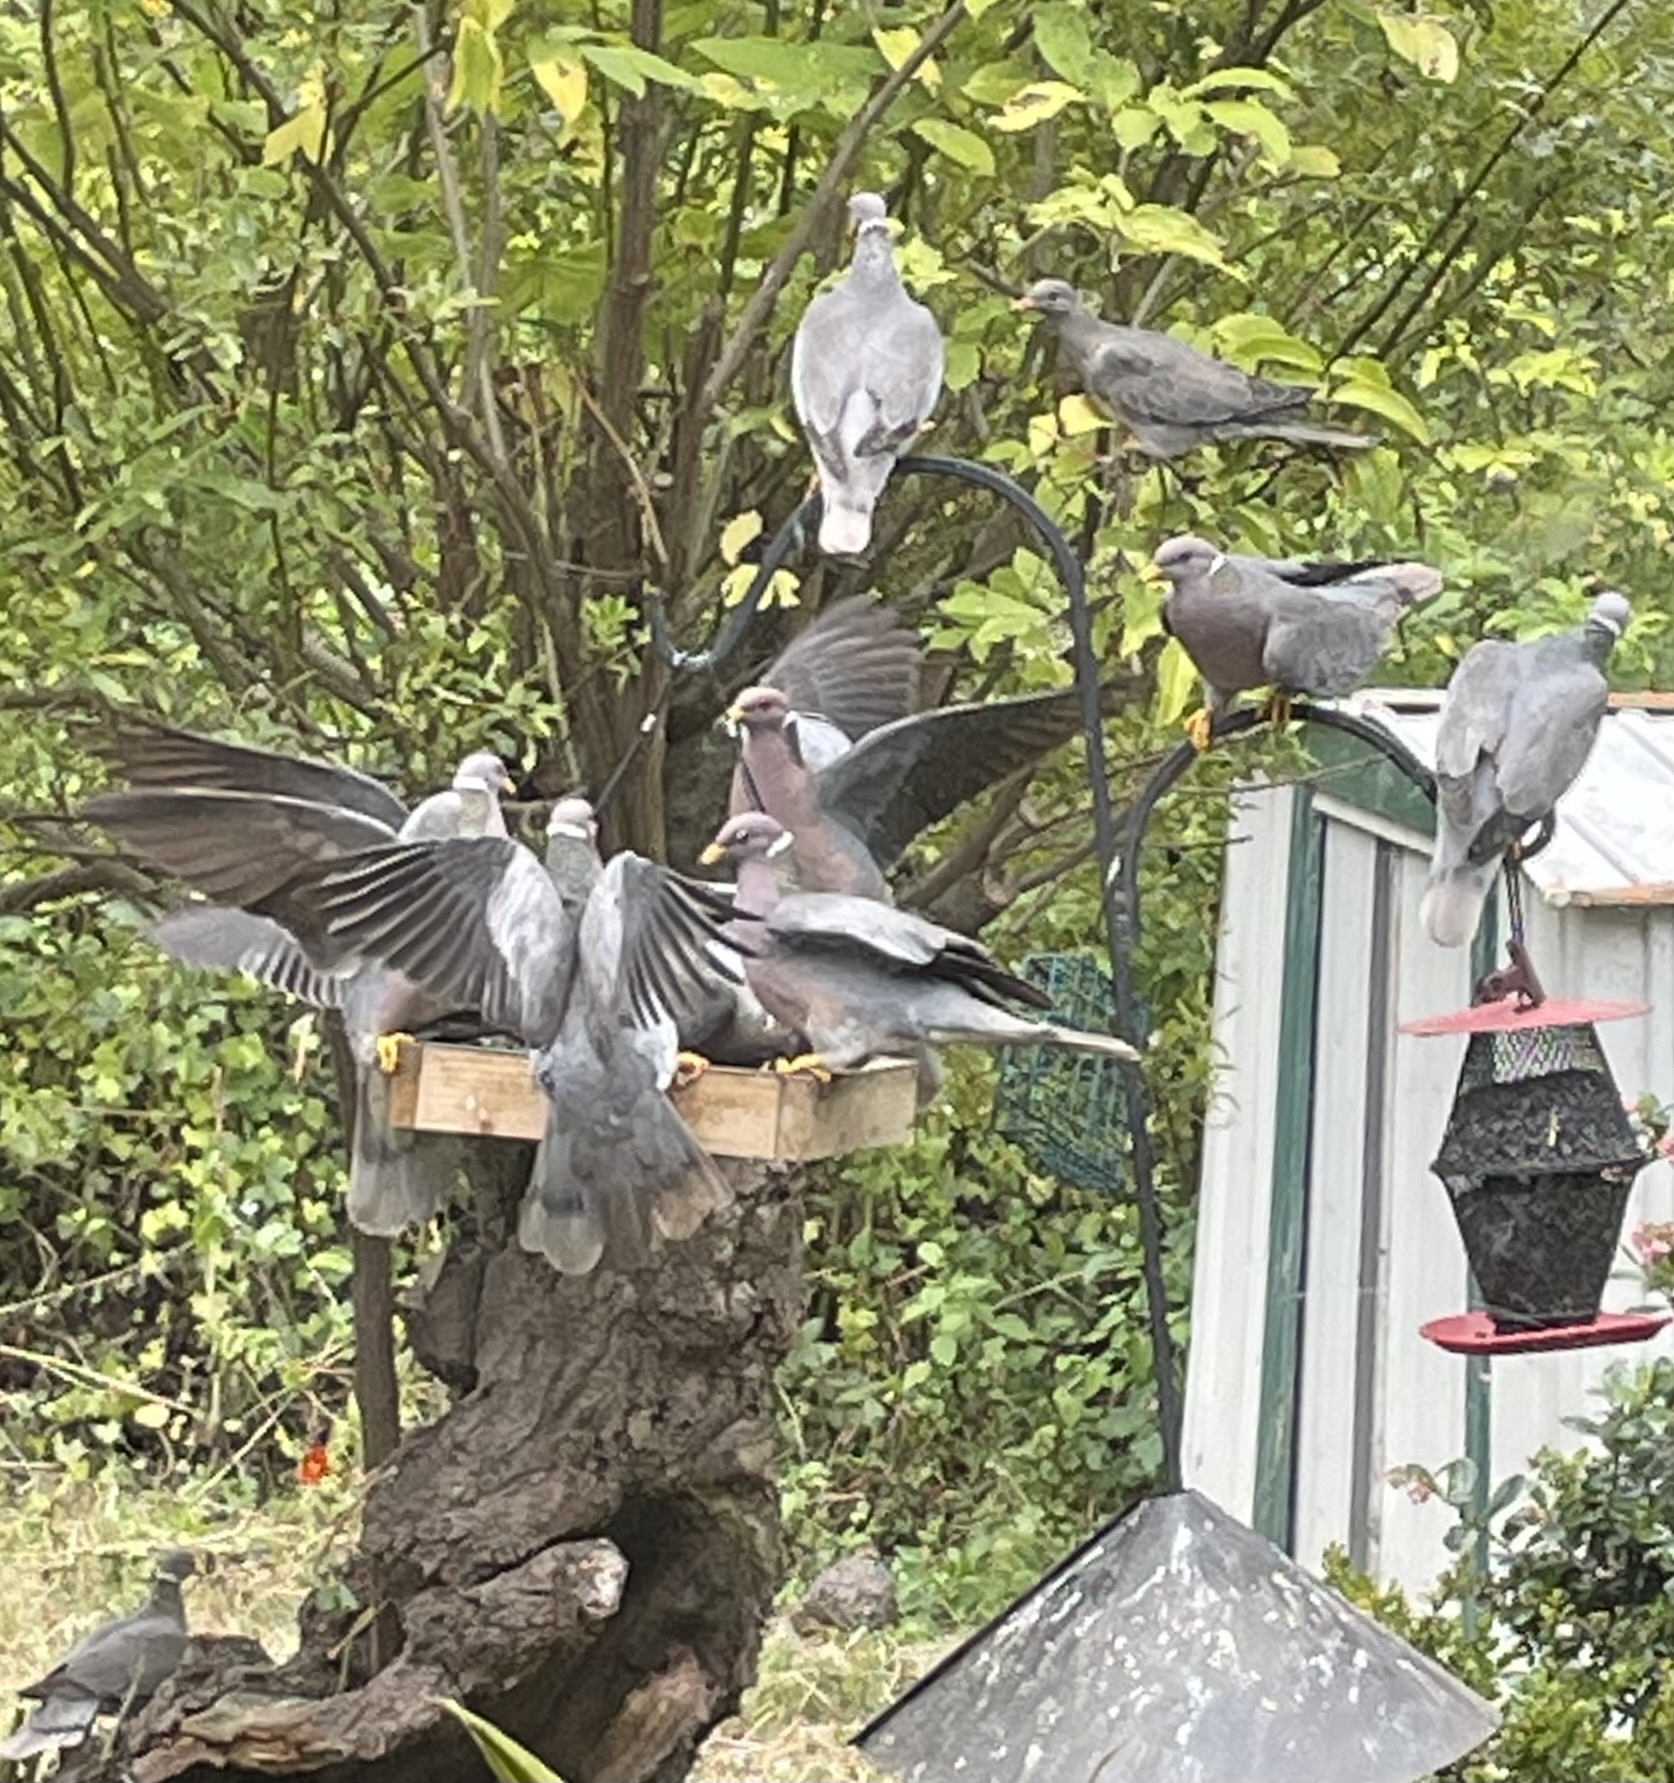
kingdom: Animalia
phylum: Chordata
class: Aves
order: Columbiformes
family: Columbidae
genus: Patagioenas
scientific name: Patagioenas fasciata
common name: Band-tailed pigeon
